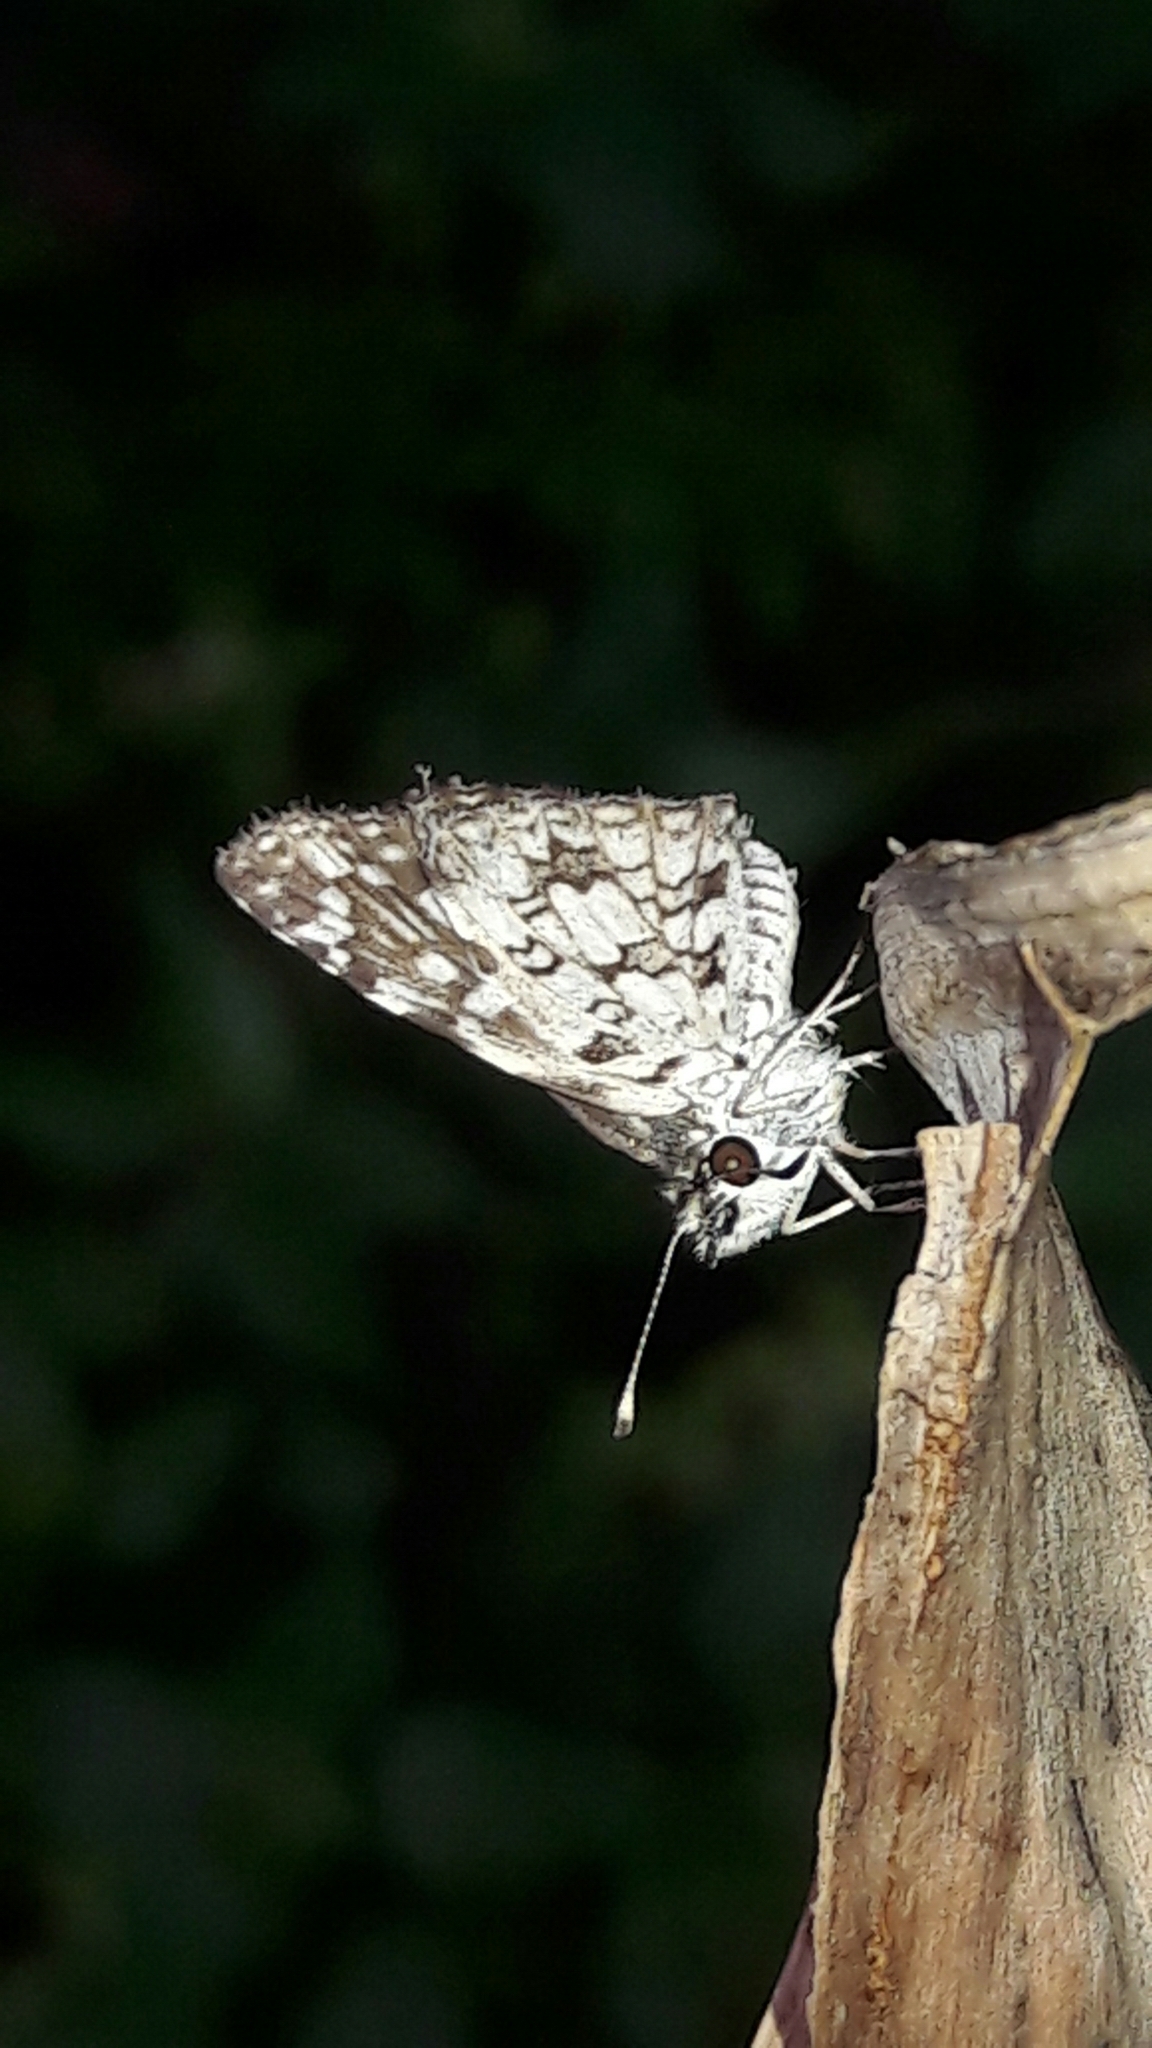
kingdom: Animalia
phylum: Arthropoda
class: Insecta
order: Lepidoptera
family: Hesperiidae
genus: Pyrgus
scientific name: Pyrgus oileus
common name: Tropical checkered-skipper
